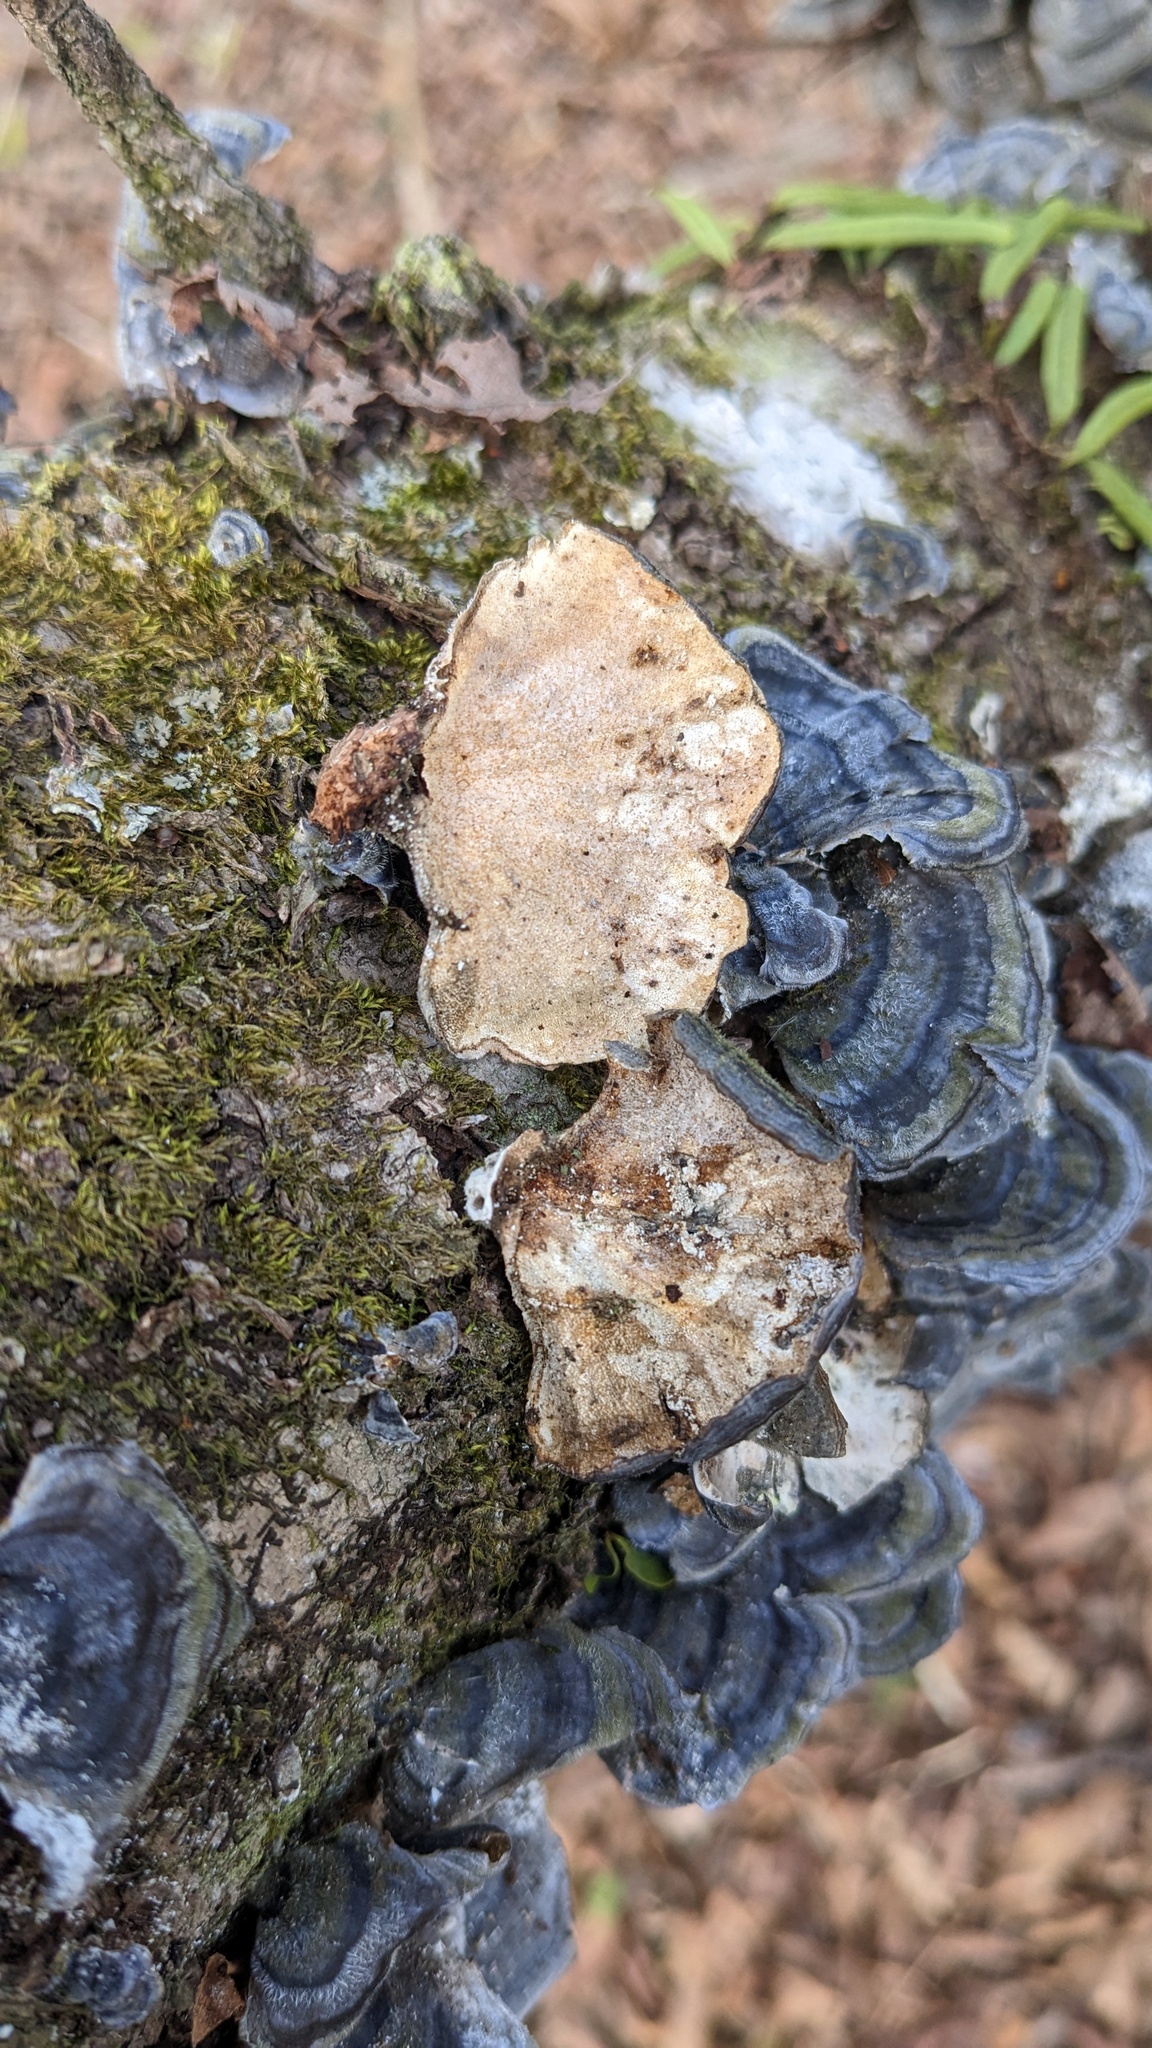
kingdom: Fungi
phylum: Basidiomycota
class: Agaricomycetes
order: Polyporales
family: Polyporaceae
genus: Trametes
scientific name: Trametes versicolor
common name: Turkeytail
